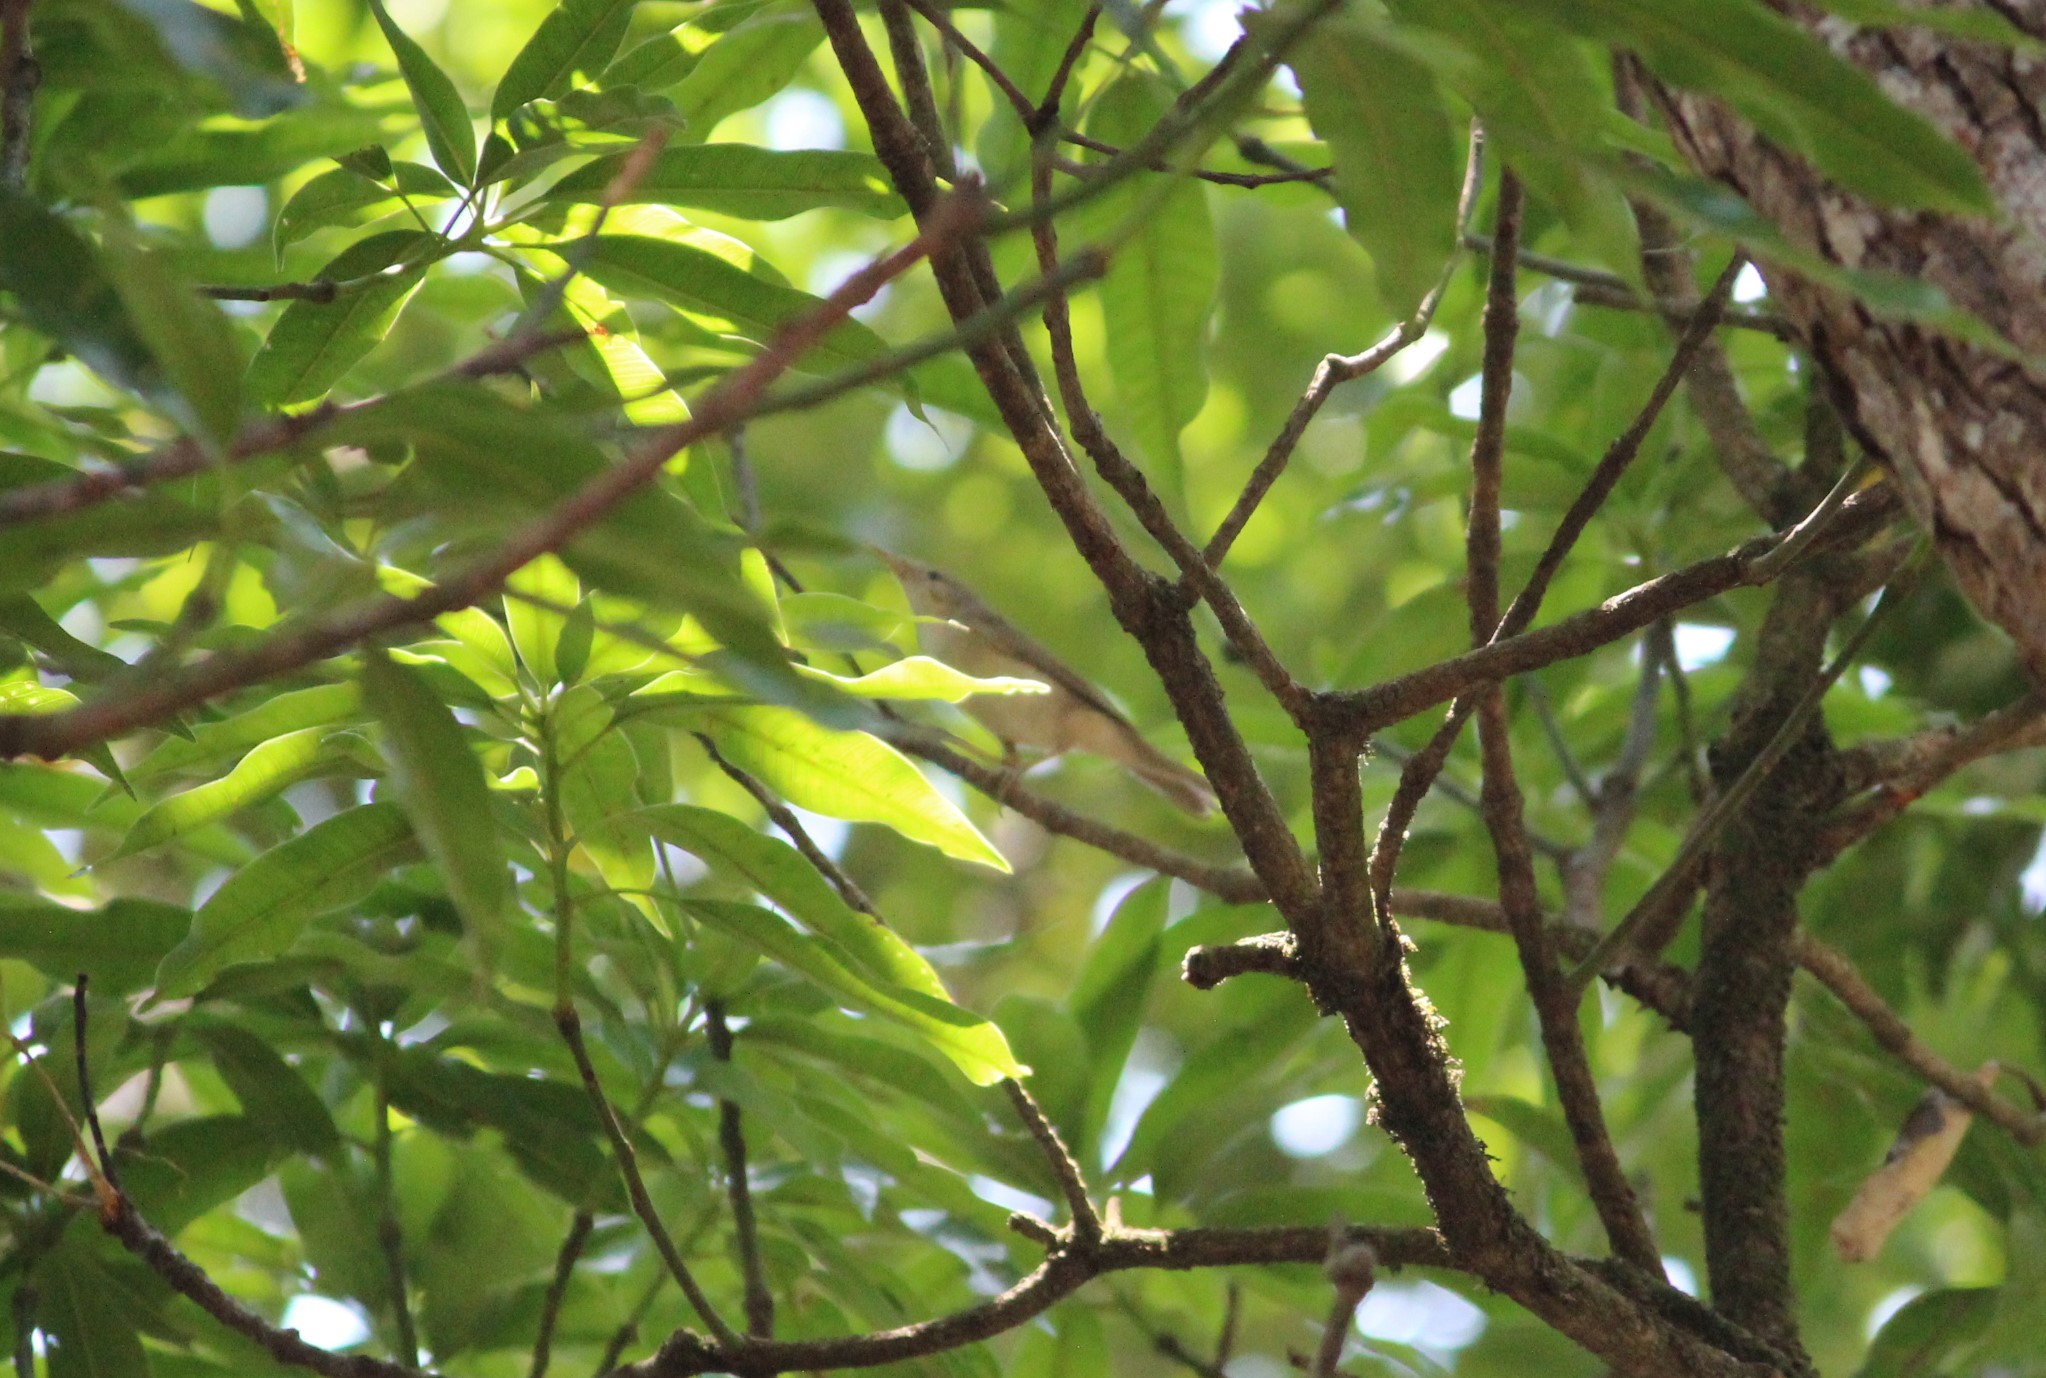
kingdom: Animalia
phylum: Chordata
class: Aves
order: Passeriformes
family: Acrocephalidae
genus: Acrocephalus
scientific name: Acrocephalus dumetorum
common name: Blyth's reed warbler
